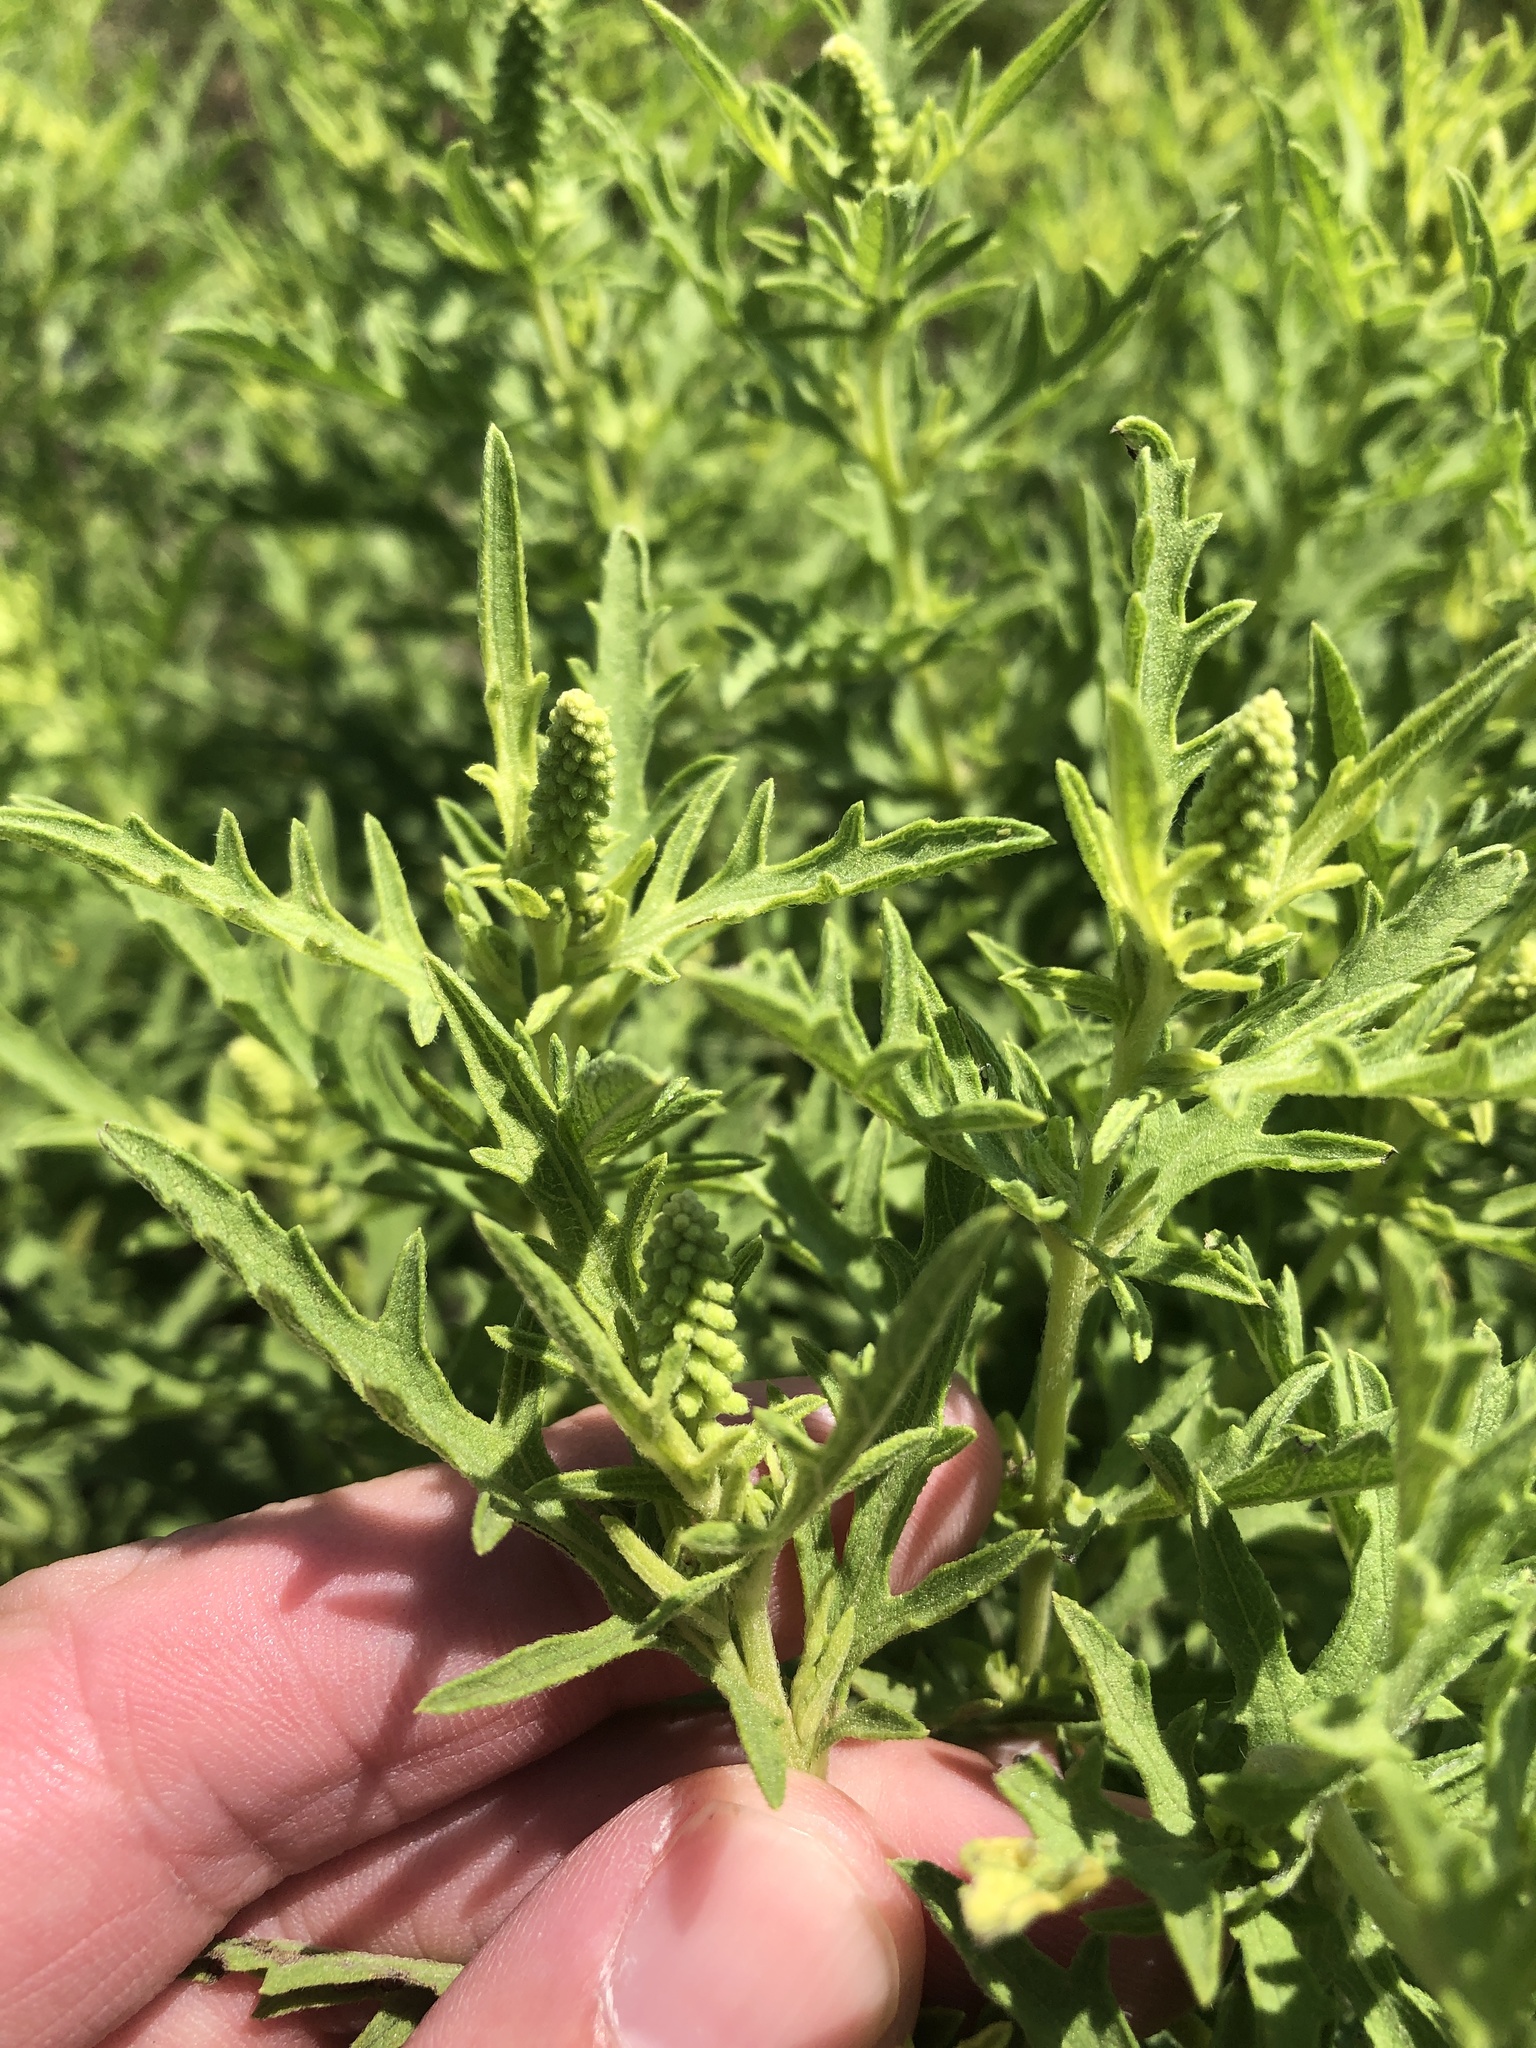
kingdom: Plantae
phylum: Tracheophyta
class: Magnoliopsida
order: Asterales
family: Asteraceae
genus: Ambrosia
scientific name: Ambrosia psilostachya
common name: Perennial ragweed
